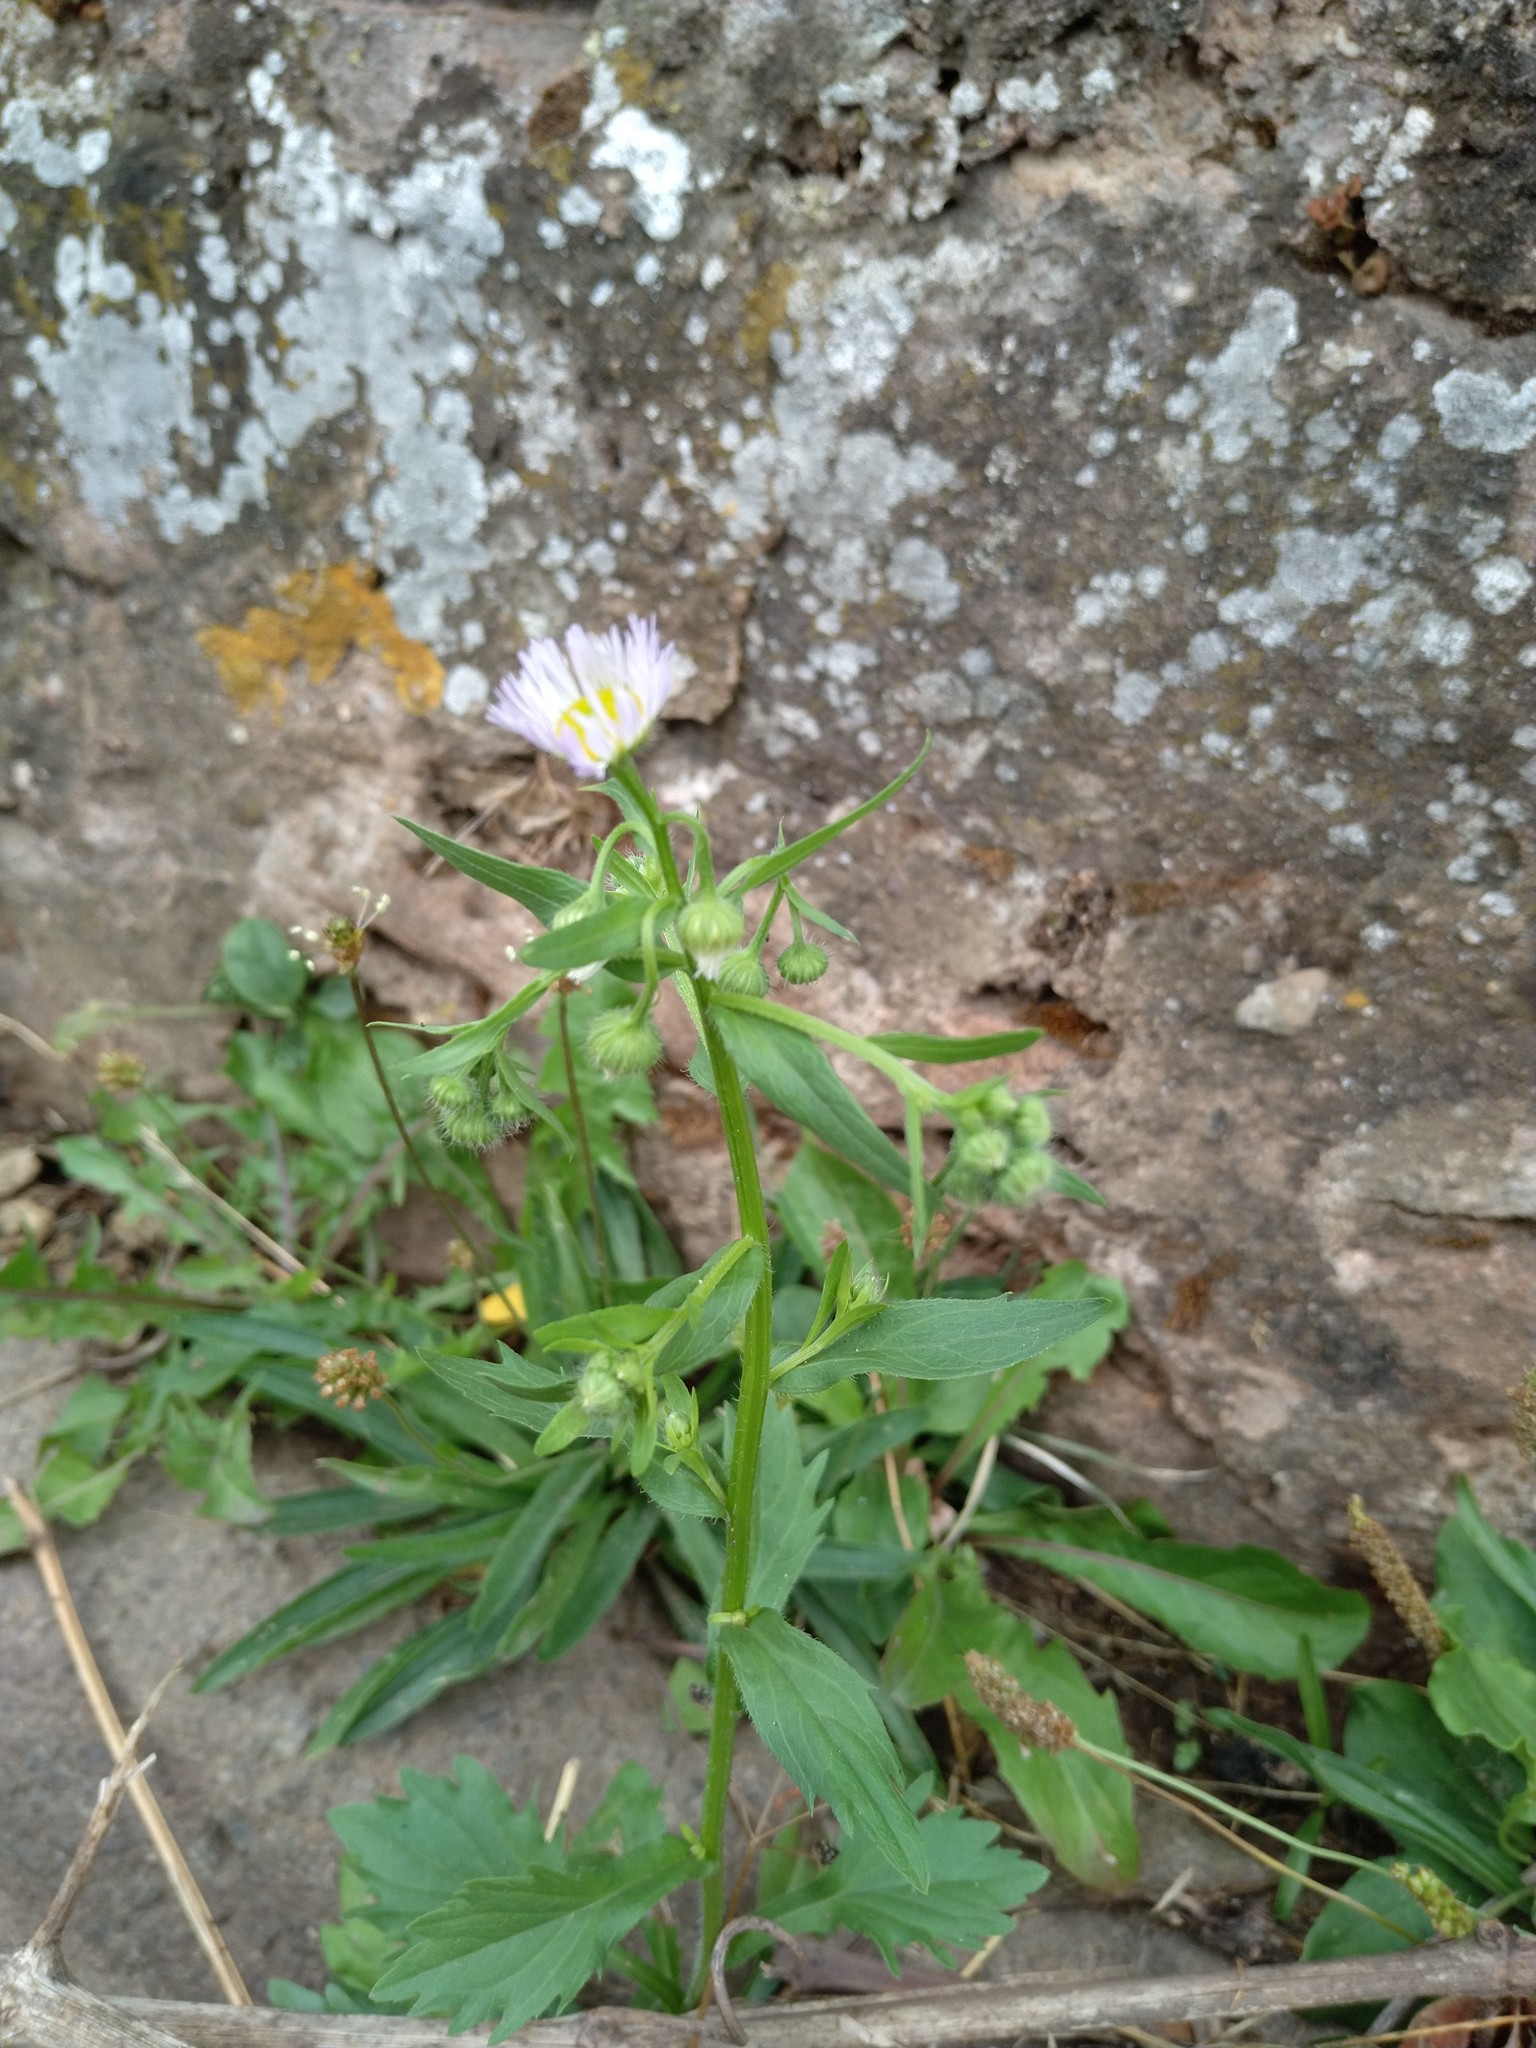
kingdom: Plantae
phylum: Tracheophyta
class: Magnoliopsida
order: Asterales
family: Asteraceae
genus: Erigeron
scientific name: Erigeron annuus
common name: Tall fleabane
